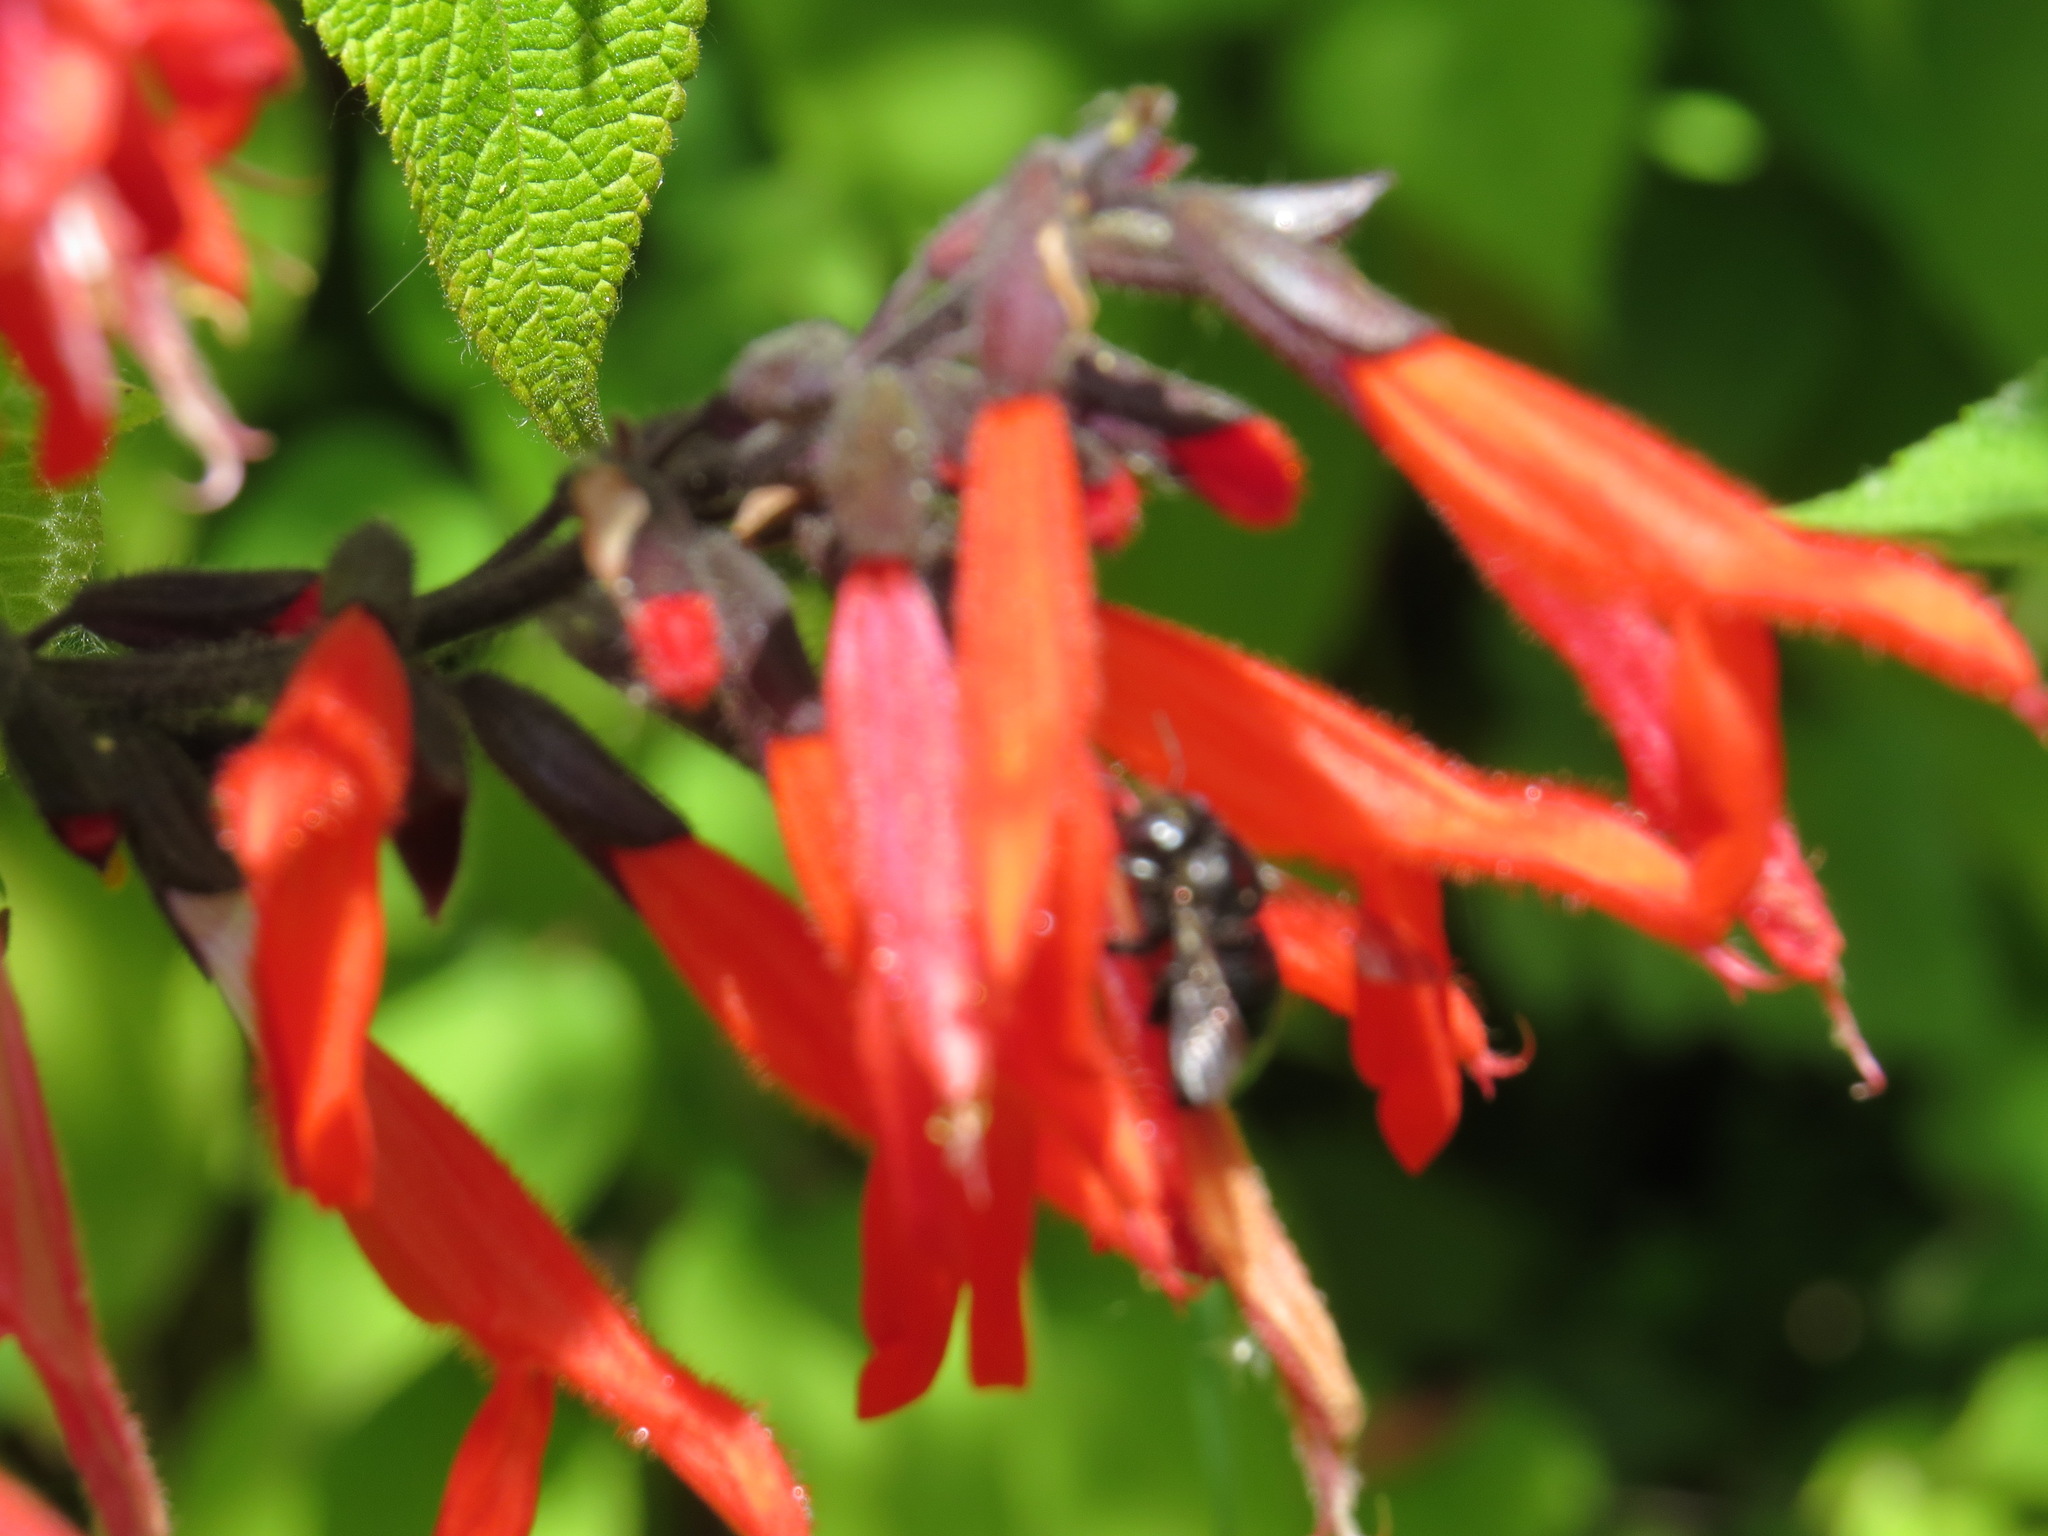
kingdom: Animalia
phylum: Arthropoda
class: Insecta
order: Hymenoptera
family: Apidae
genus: Xylocopa
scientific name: Xylocopa tabaniformis
